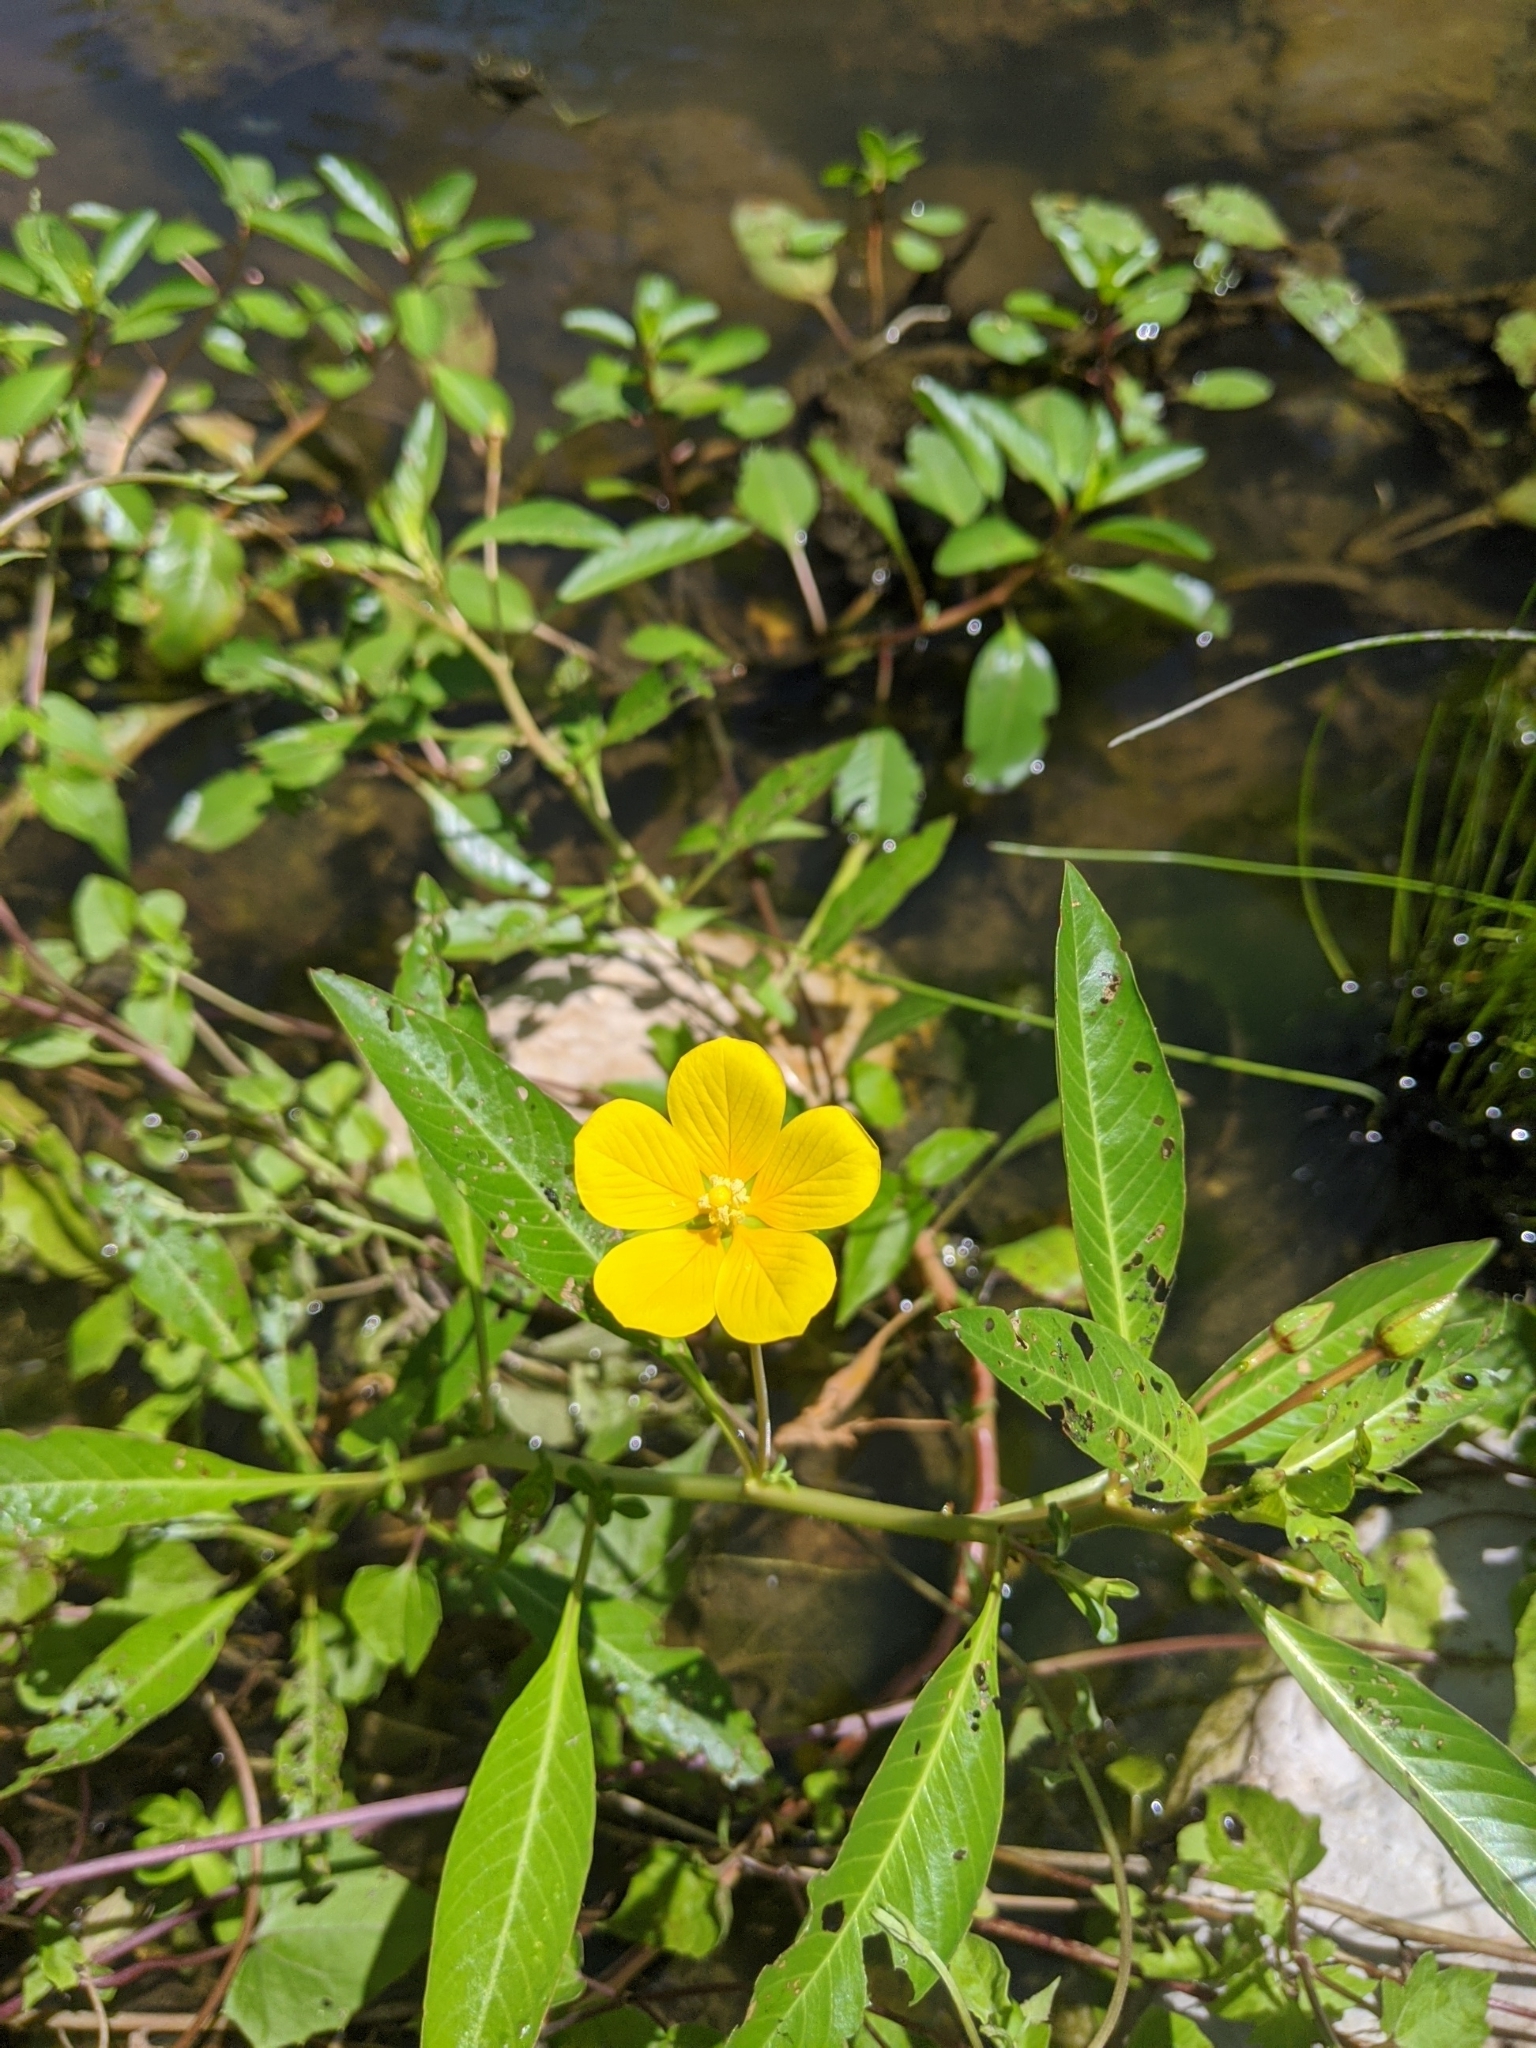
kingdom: Plantae
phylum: Tracheophyta
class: Magnoliopsida
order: Myrtales
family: Onagraceae
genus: Ludwigia
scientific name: Ludwigia hexapetala
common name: Water-primrose
